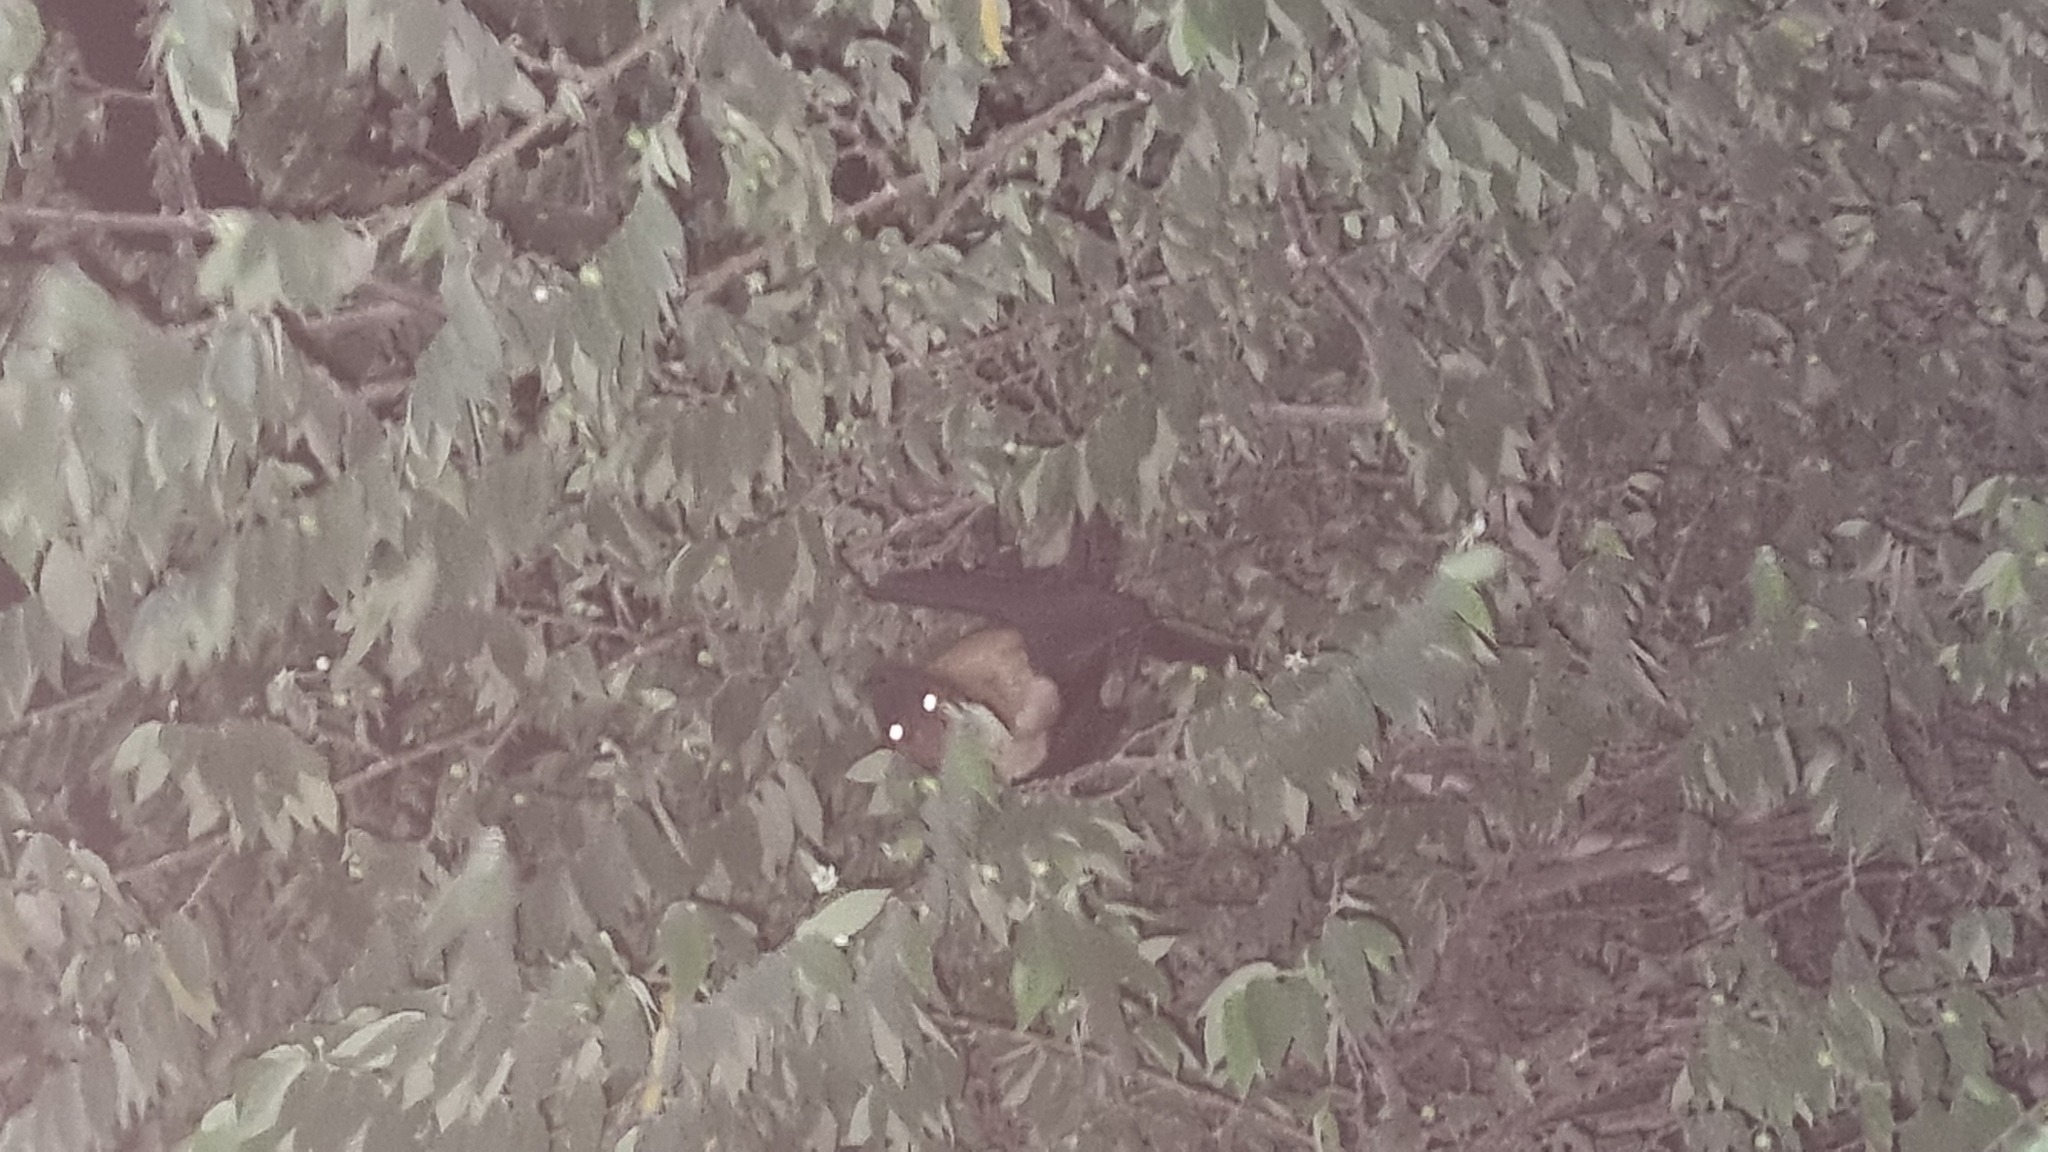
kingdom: Animalia
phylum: Chordata
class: Mammalia
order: Chiroptera
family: Pteropodidae
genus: Pteropus
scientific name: Pteropus vampyrus
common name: Large flying fox
